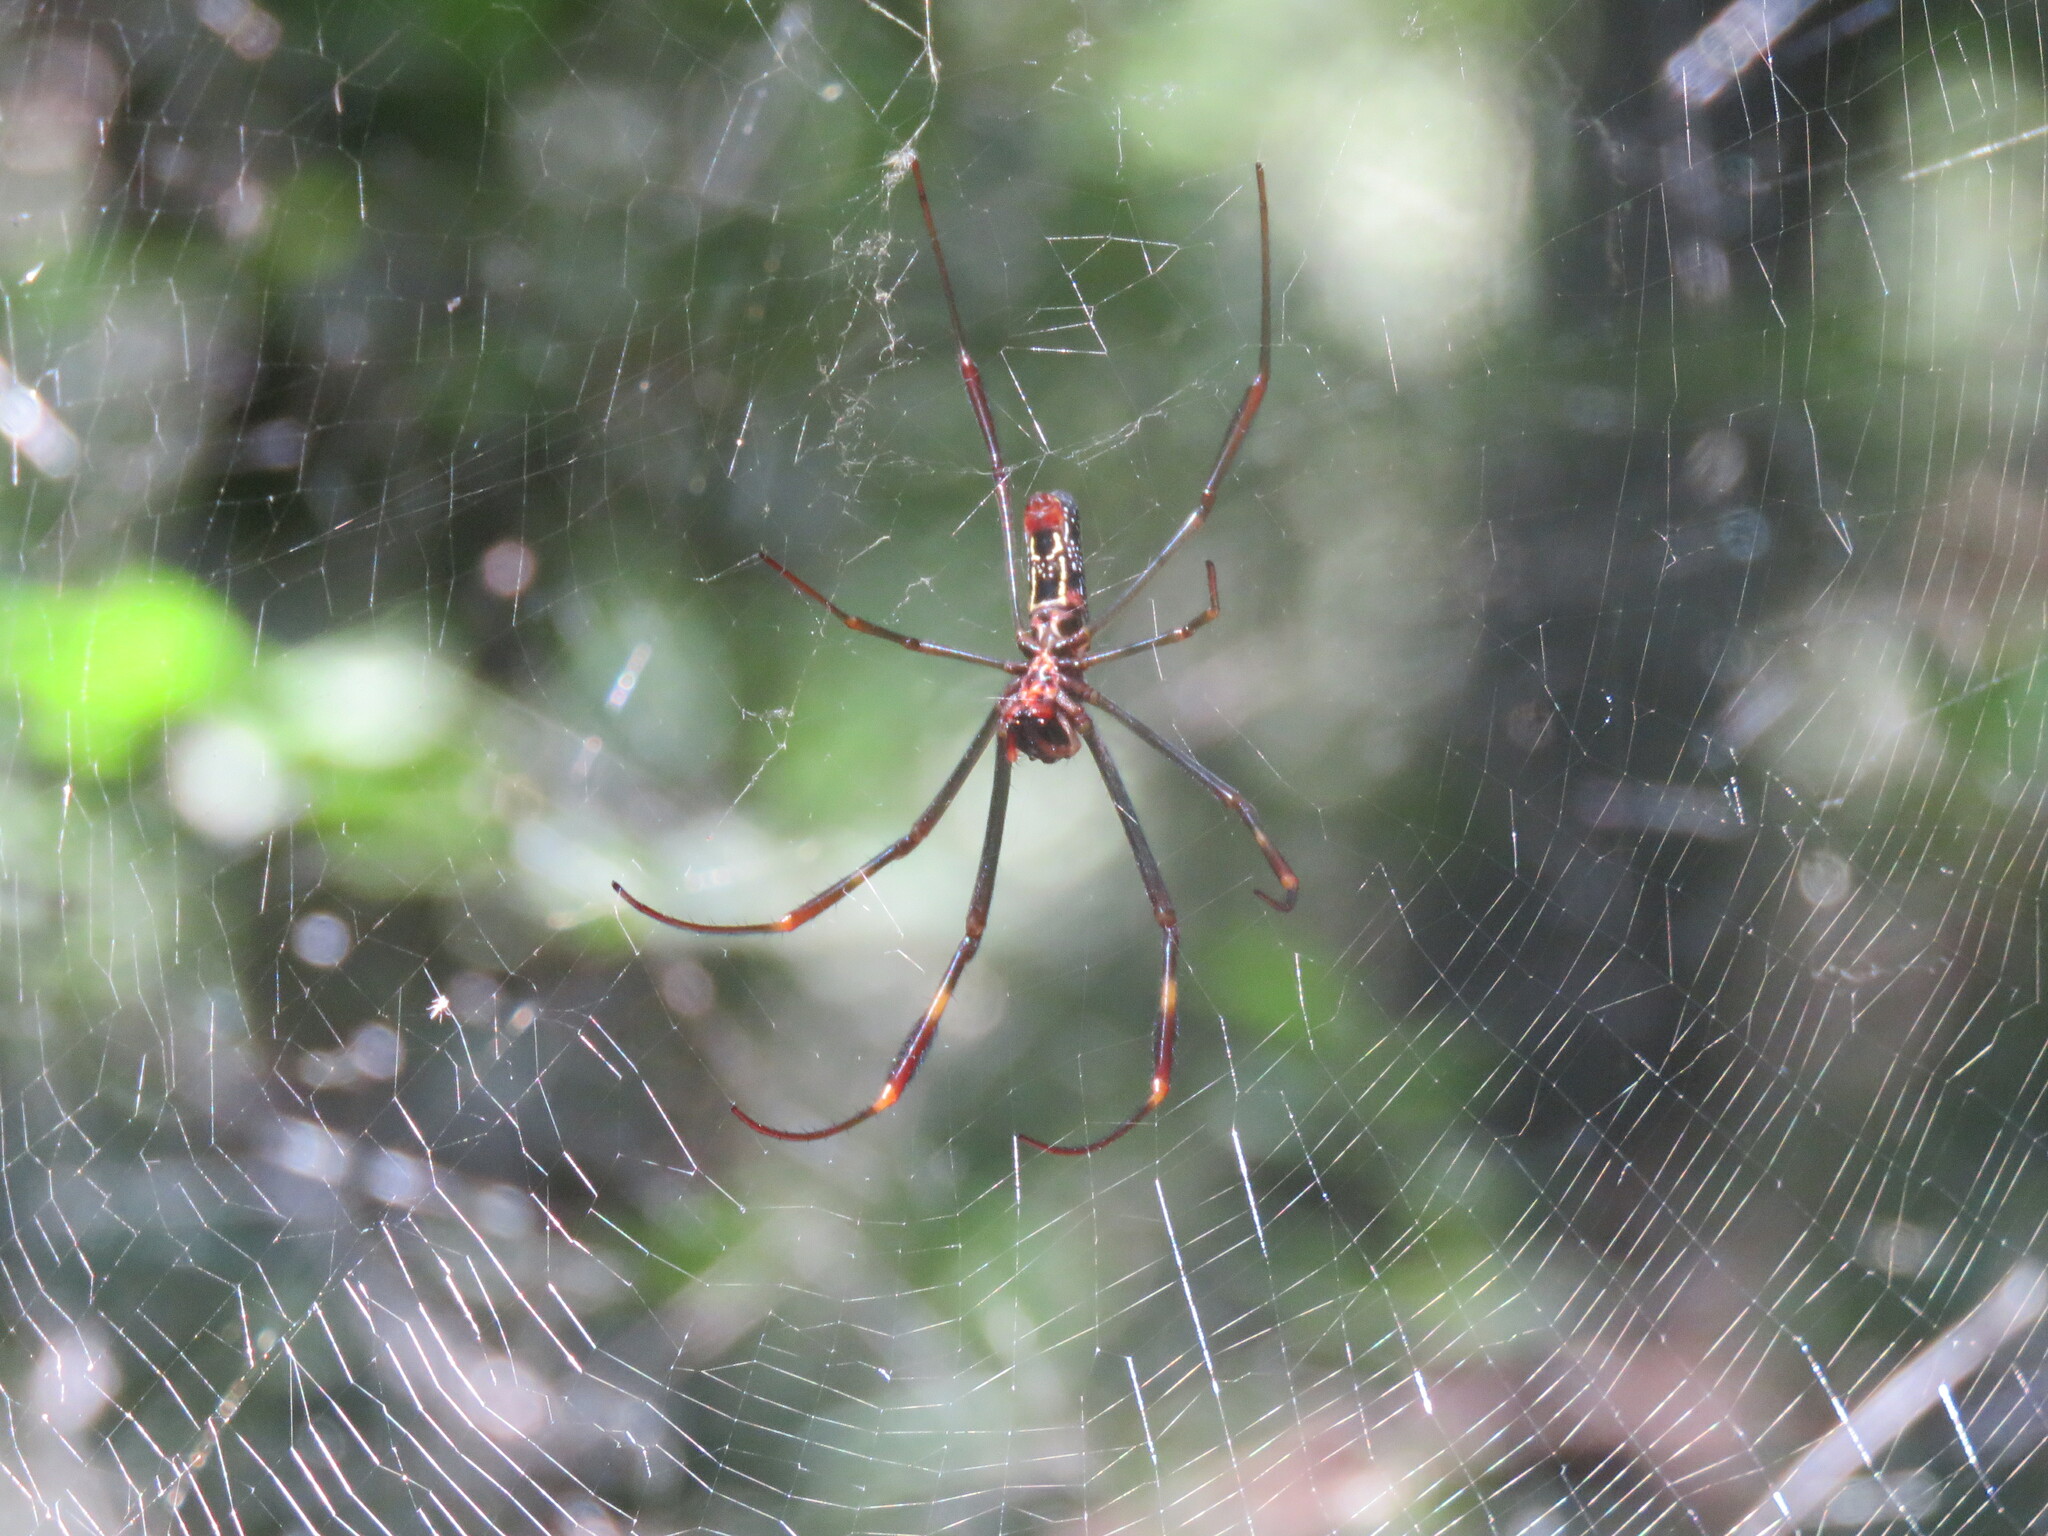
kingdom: Animalia
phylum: Arthropoda
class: Arachnida
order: Araneae
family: Araneidae
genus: Trichonephila
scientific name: Trichonephila clavipes
